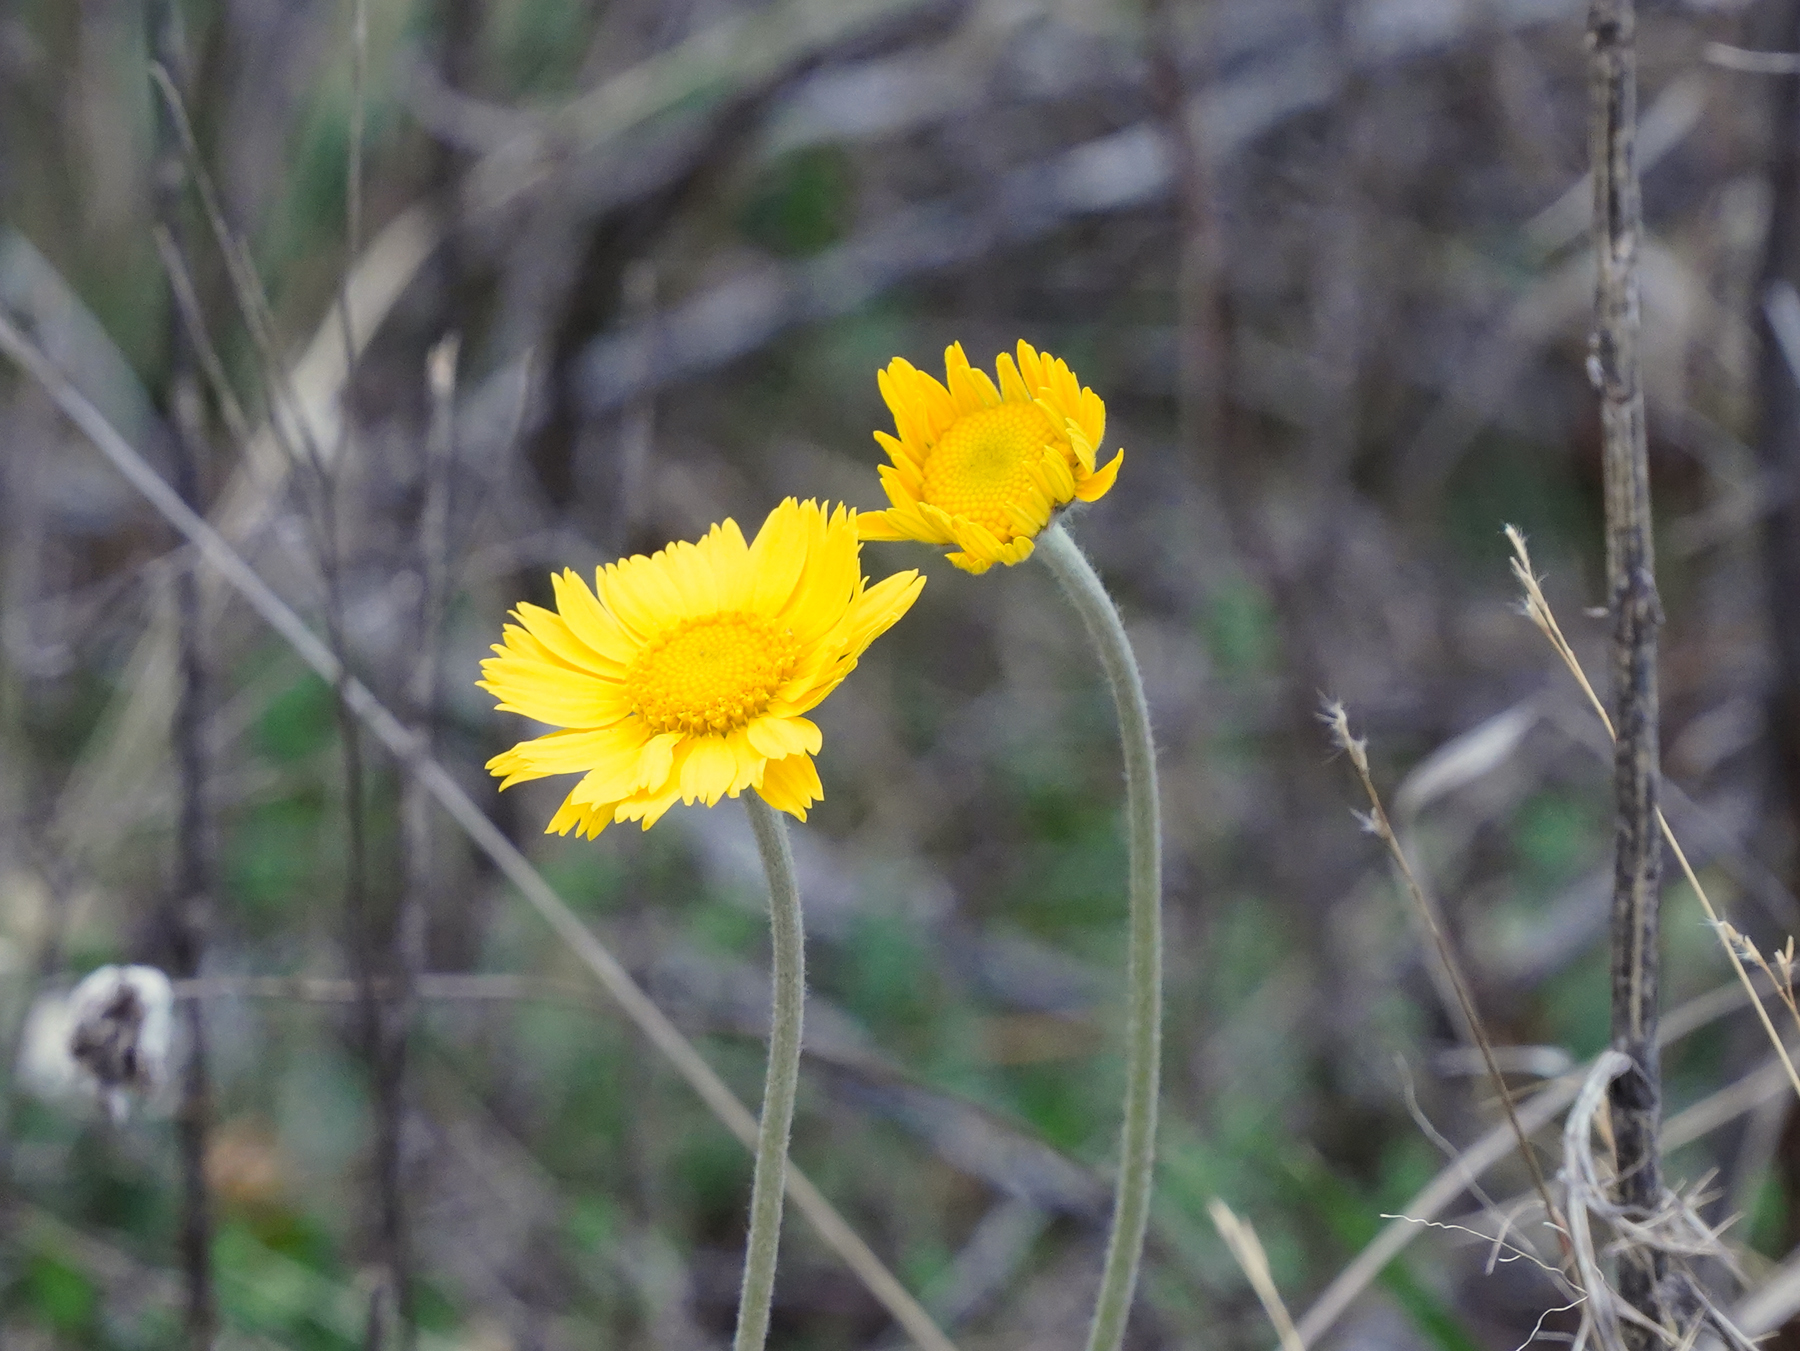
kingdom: Plantae
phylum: Tracheophyta
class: Magnoliopsida
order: Asterales
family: Asteraceae
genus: Tetraneuris
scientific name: Tetraneuris scaposa
